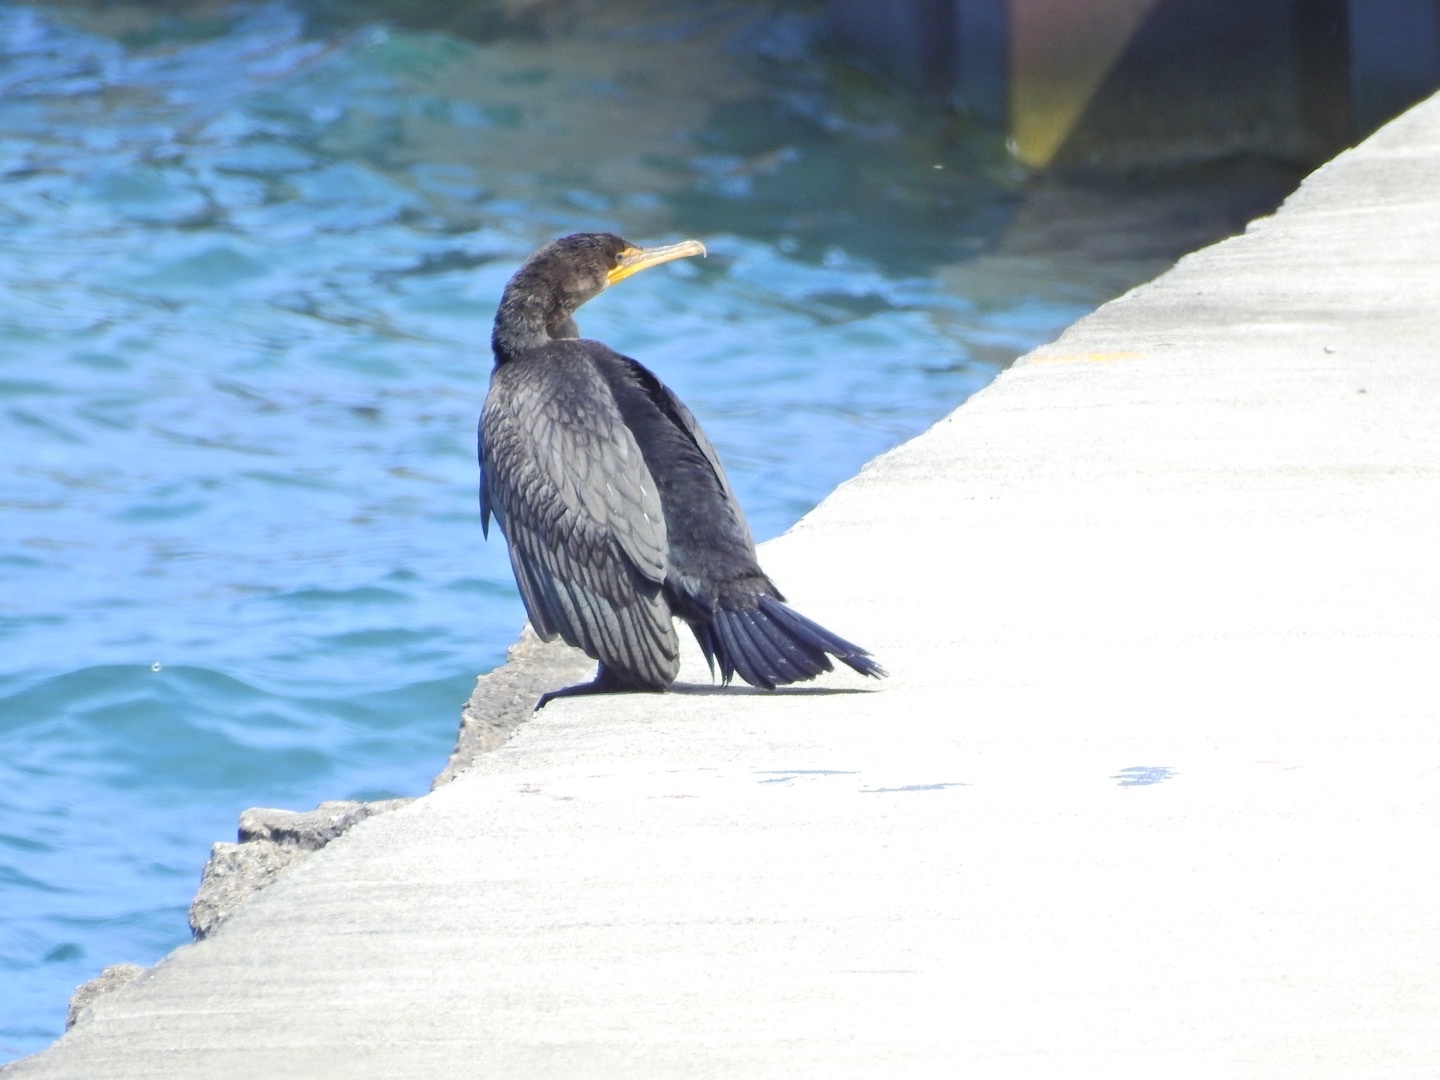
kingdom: Animalia
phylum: Chordata
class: Aves
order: Suliformes
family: Phalacrocoracidae
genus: Phalacrocorax
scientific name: Phalacrocorax auritus
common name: Double-crested cormorant
